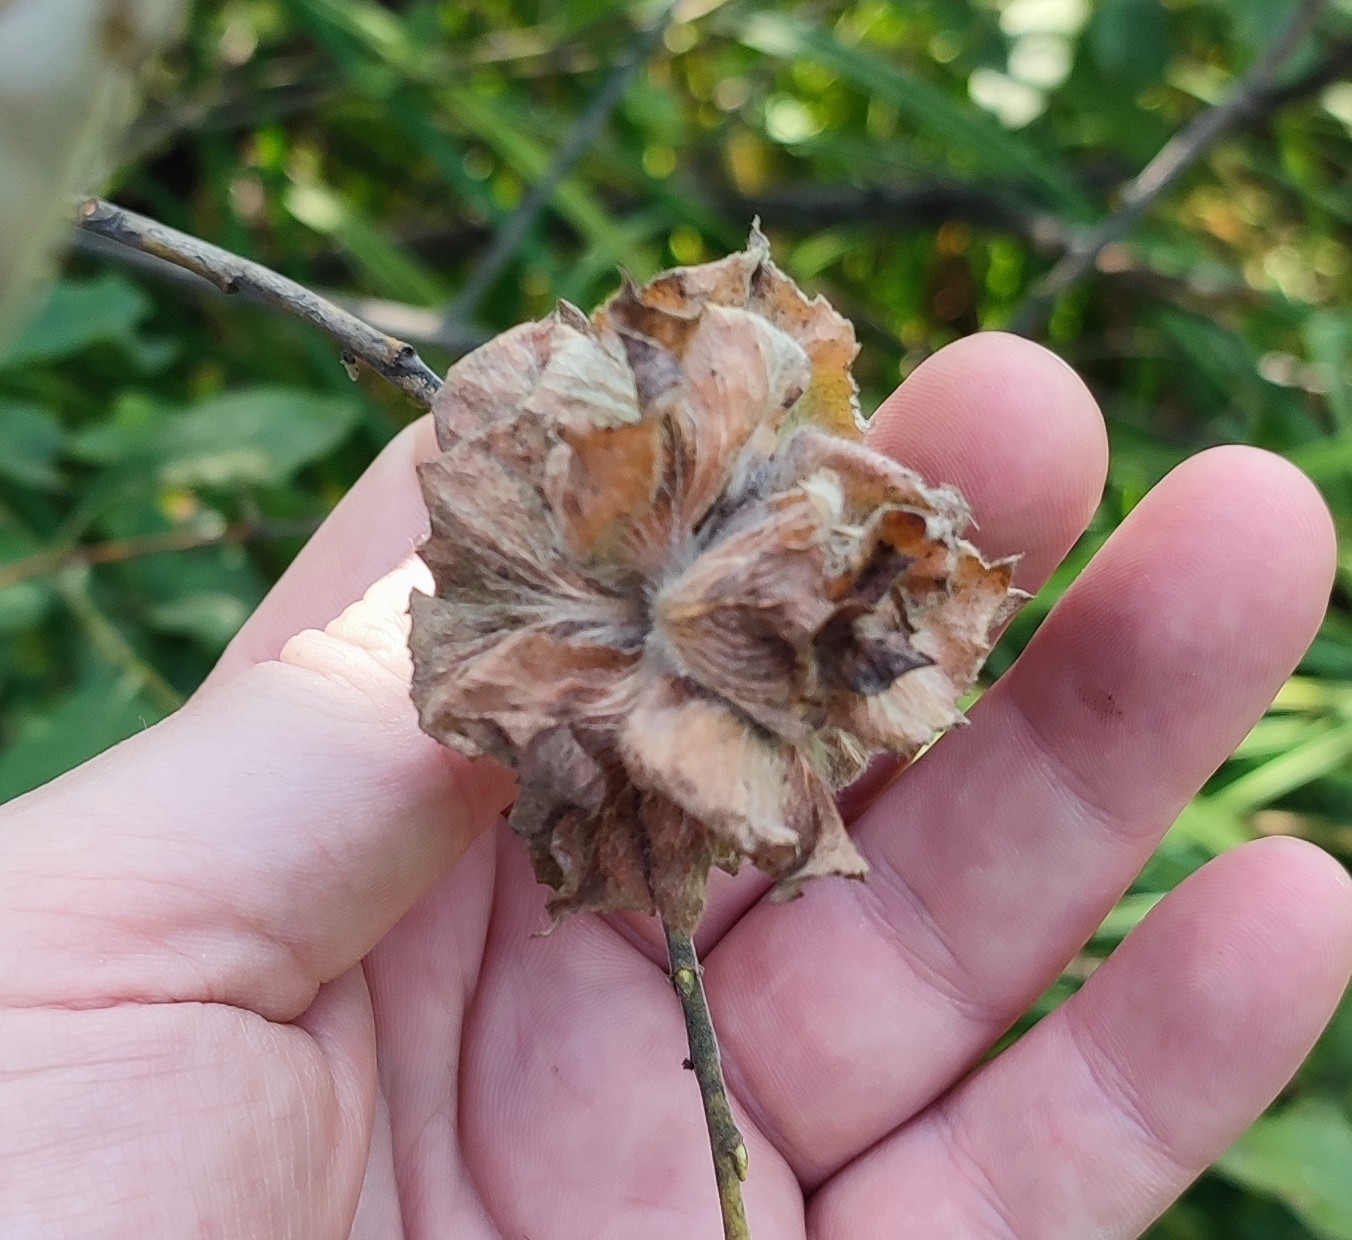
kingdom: Animalia
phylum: Arthropoda
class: Insecta
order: Diptera
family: Cecidomyiidae
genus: Rabdophaga
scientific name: Rabdophaga rosaria
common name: Willow rose gall midge
